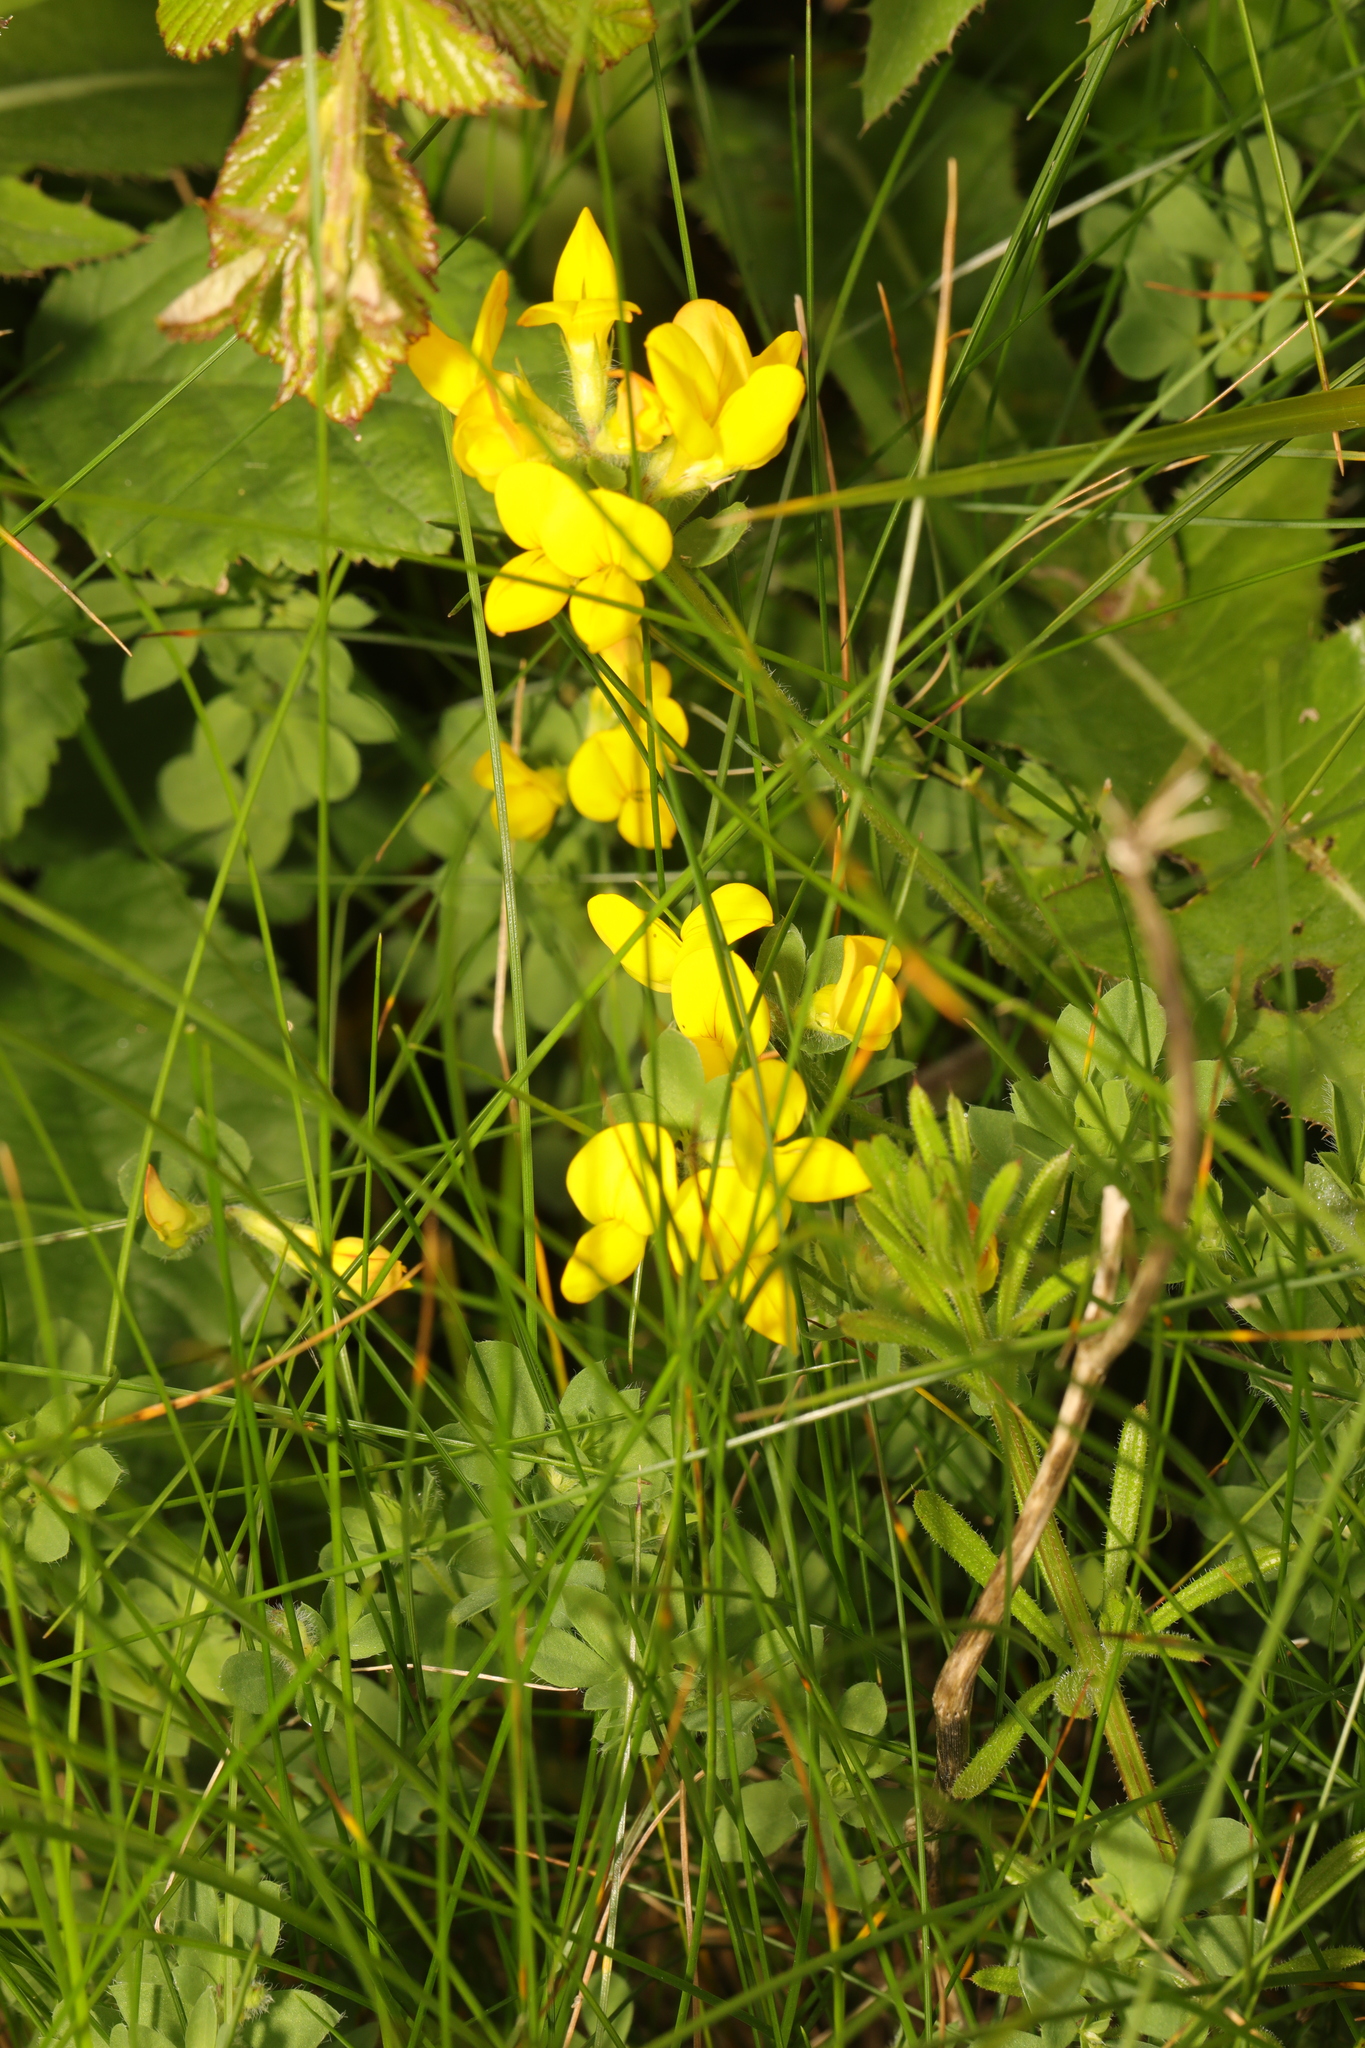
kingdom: Plantae
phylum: Tracheophyta
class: Magnoliopsida
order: Fabales
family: Fabaceae
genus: Lotus
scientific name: Lotus corniculatus
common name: Common bird's-foot-trefoil
